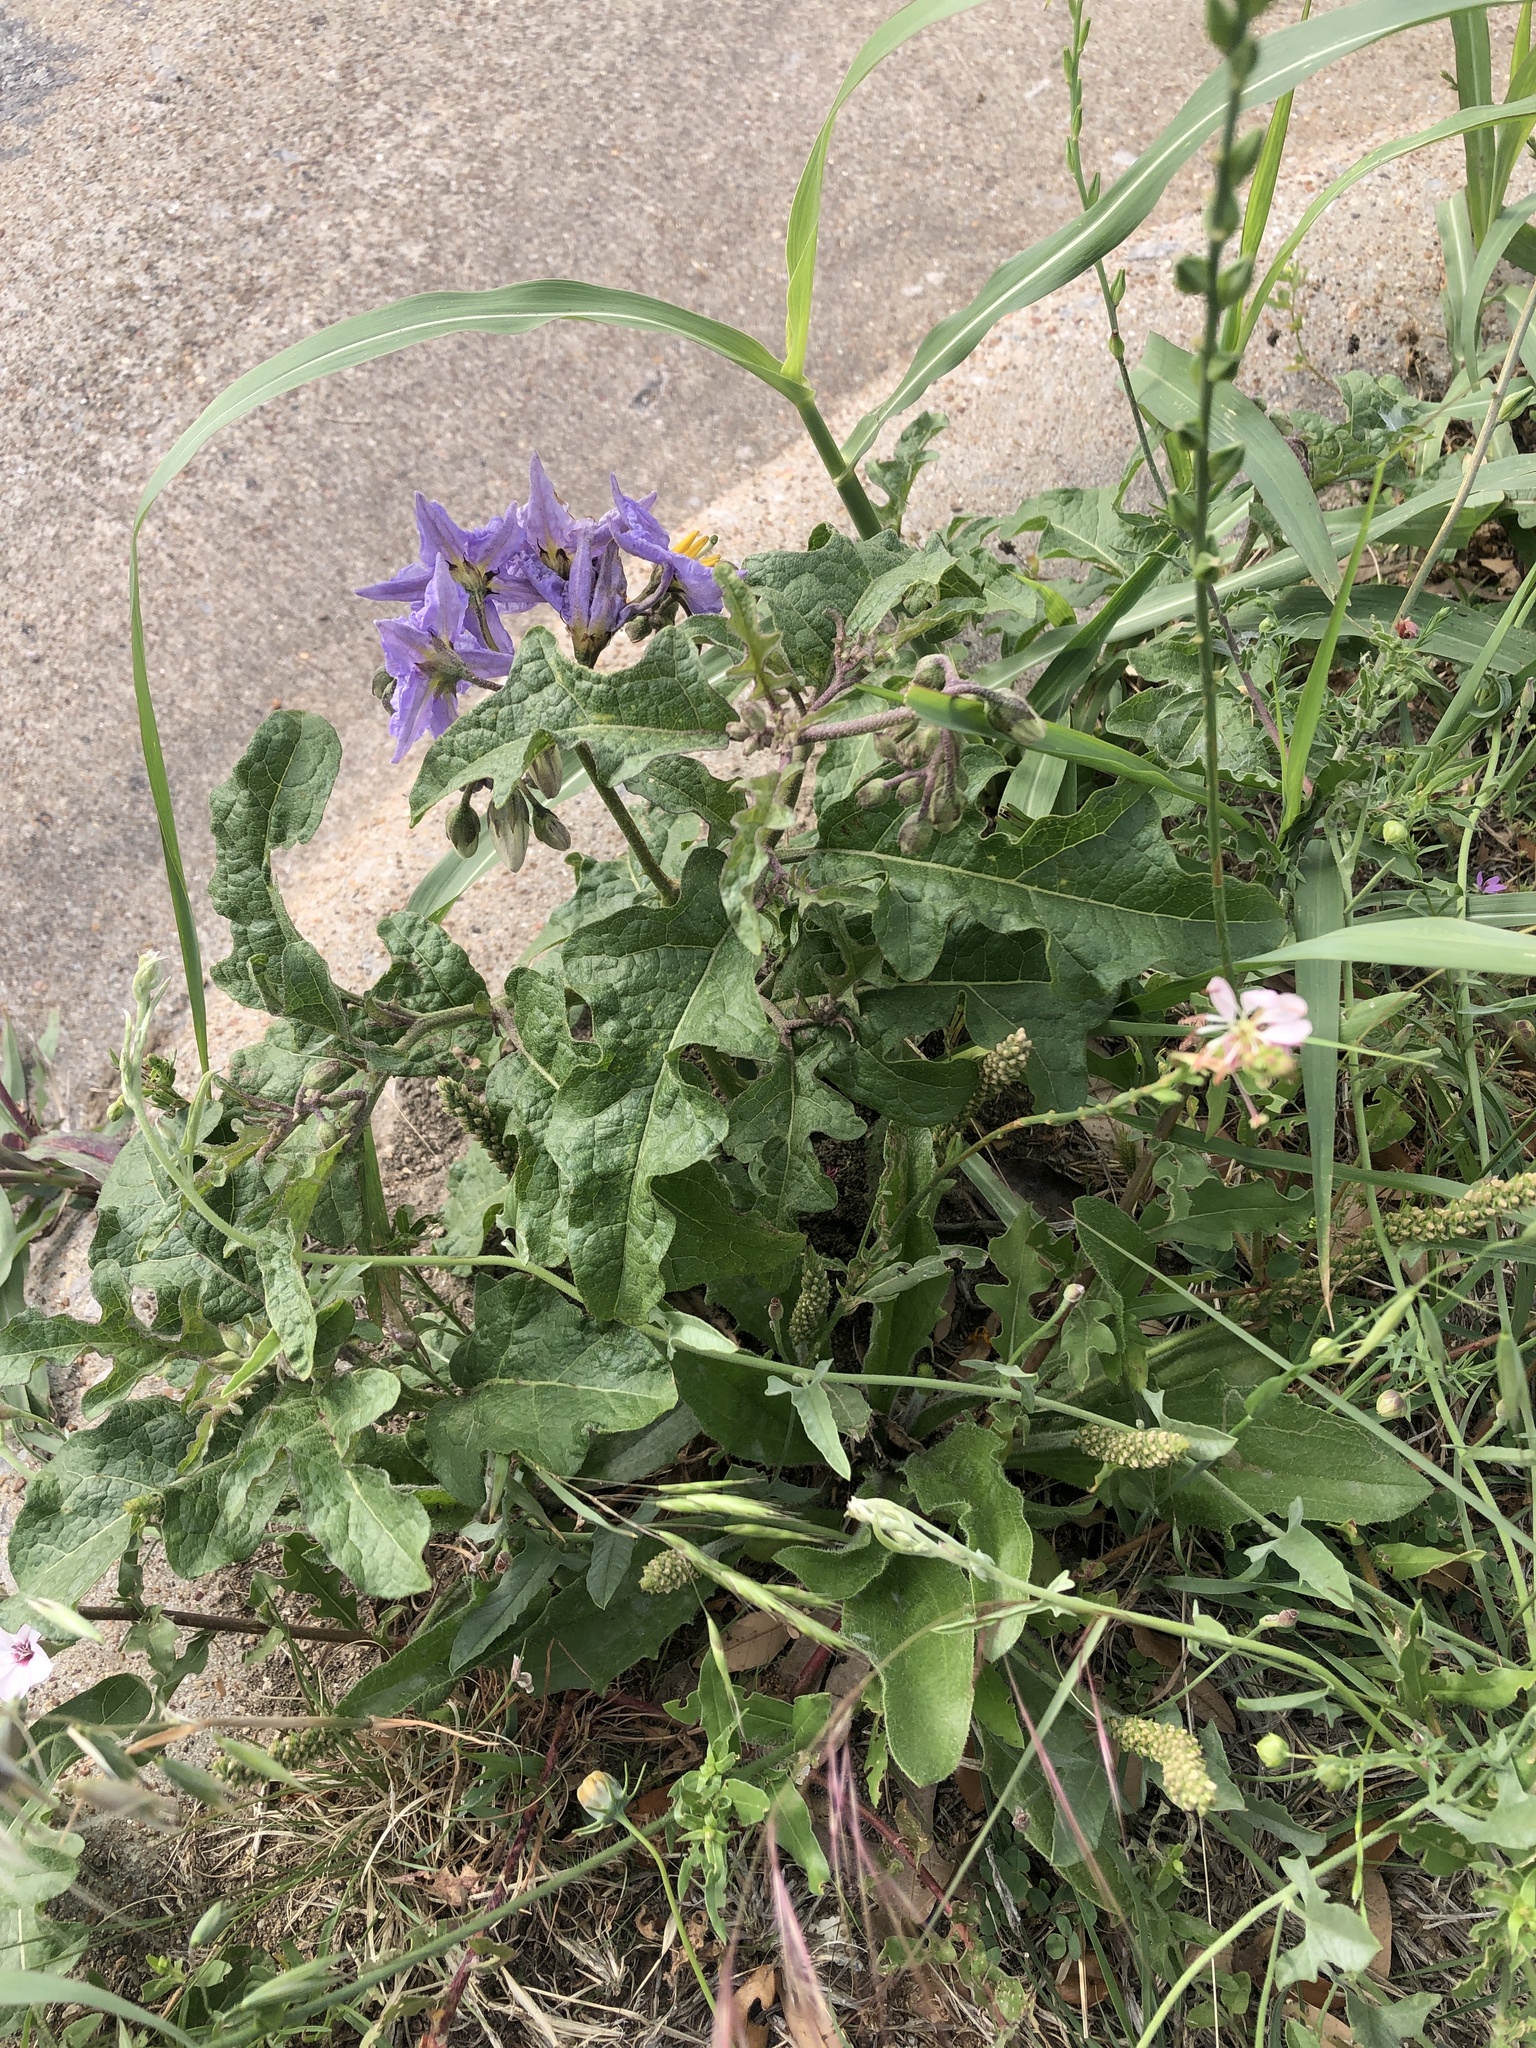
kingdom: Plantae
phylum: Tracheophyta
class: Magnoliopsida
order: Solanales
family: Solanaceae
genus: Solanum
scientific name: Solanum dimidiatum
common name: Carolina horse-nettle
